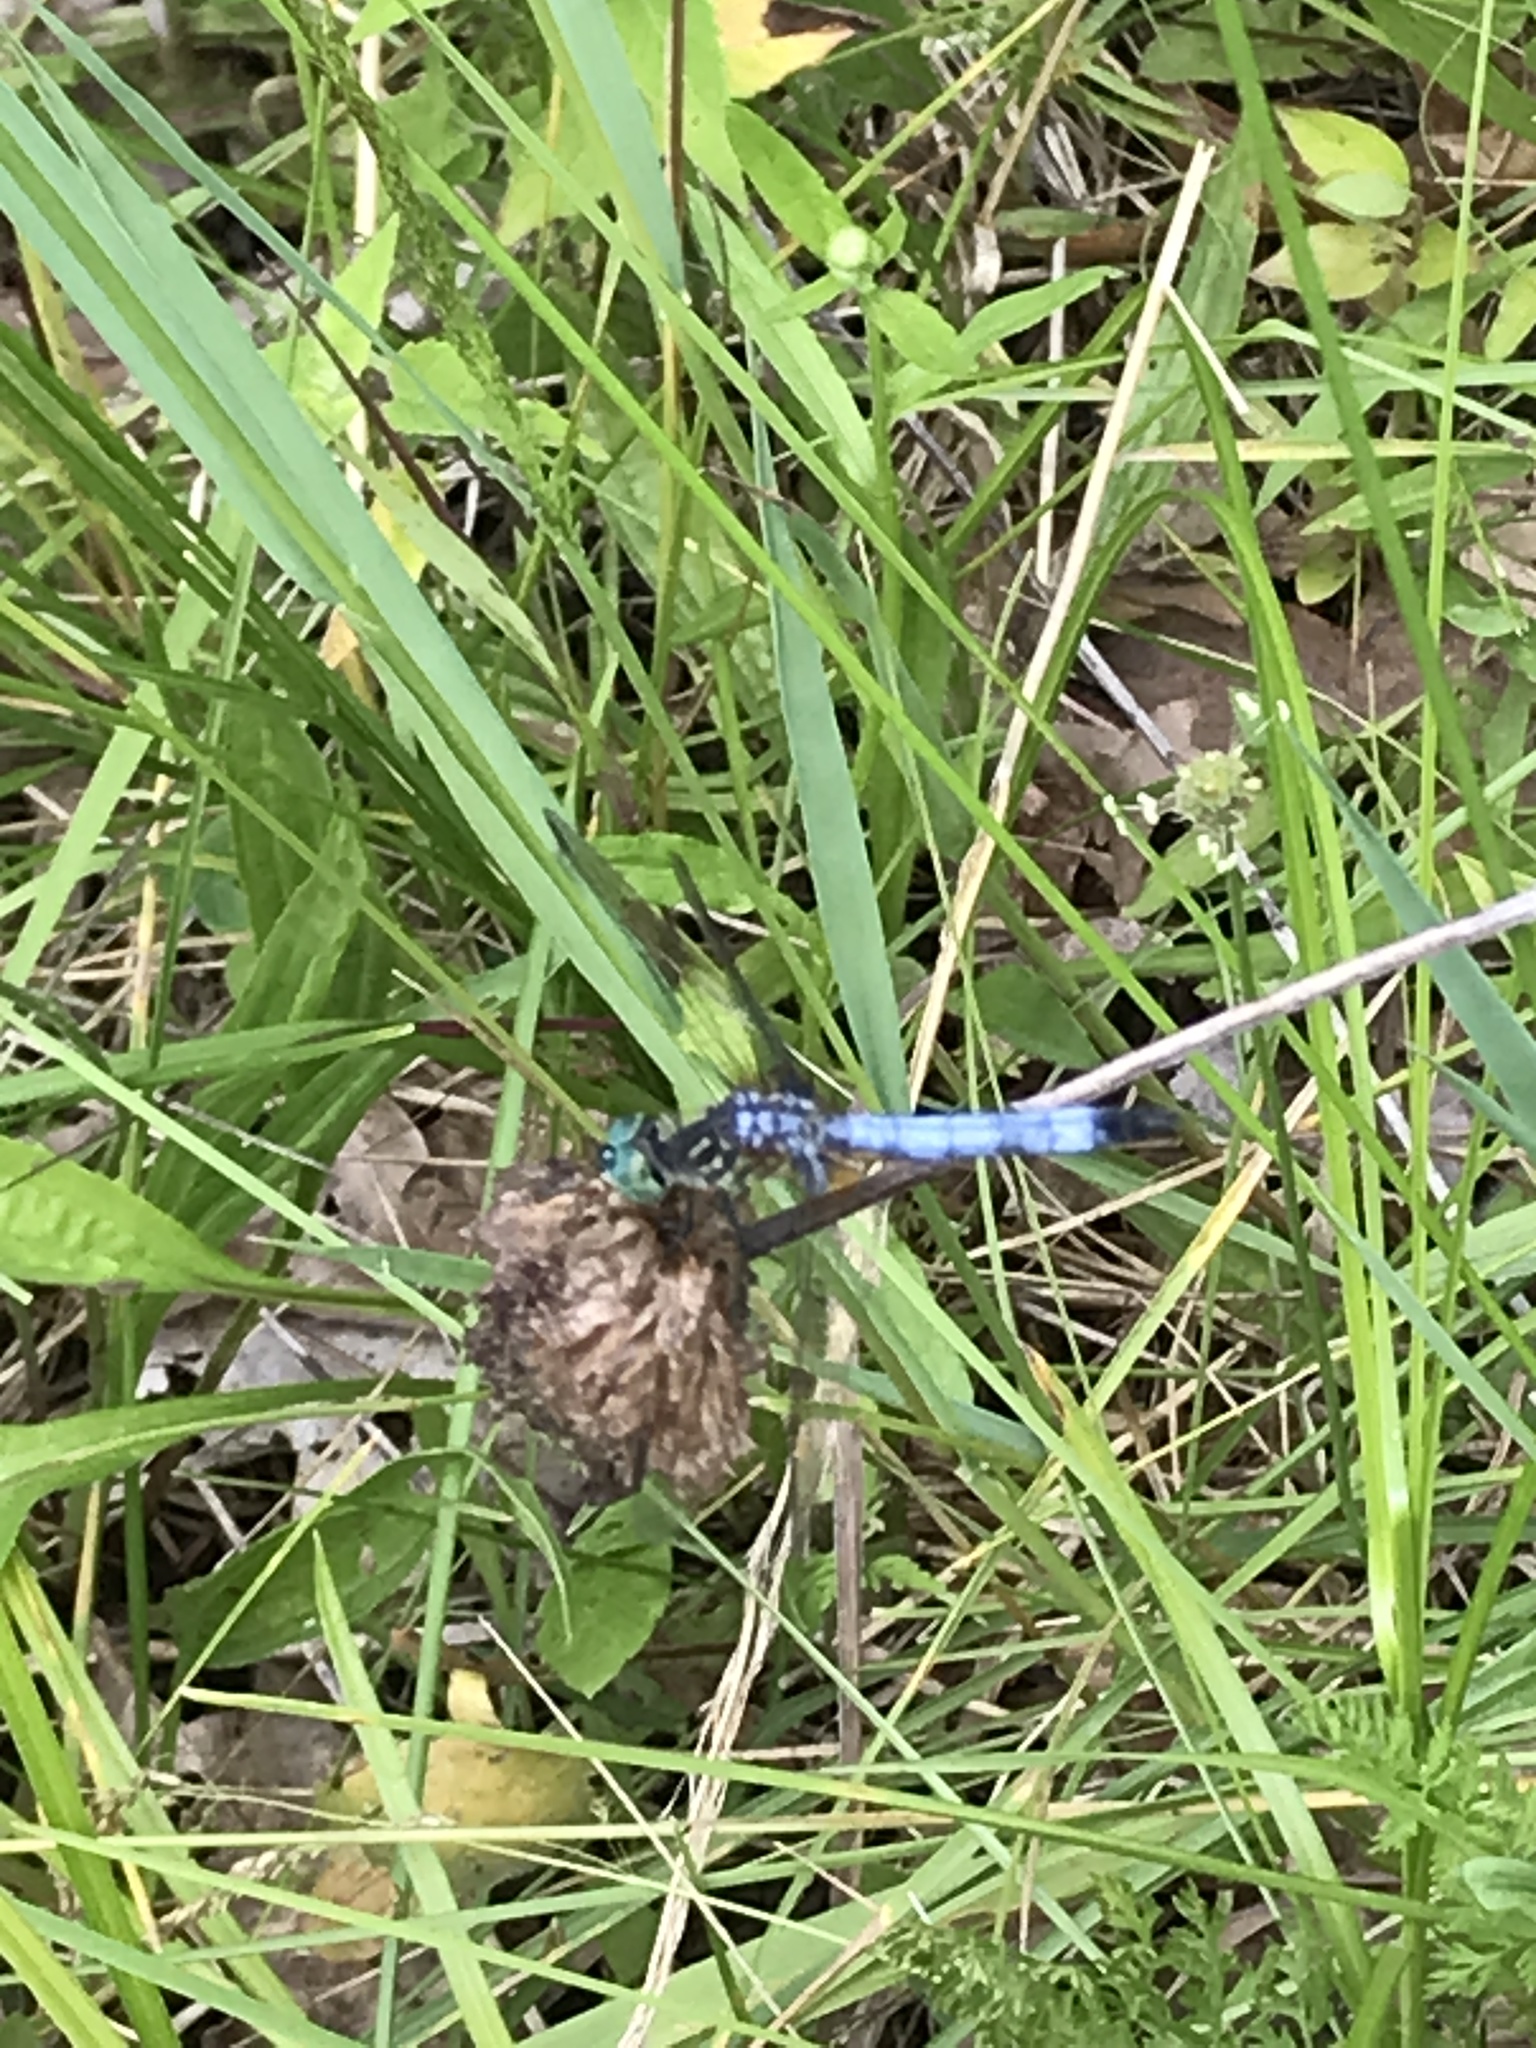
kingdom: Animalia
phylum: Arthropoda
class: Insecta
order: Odonata
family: Libellulidae
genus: Pachydiplax
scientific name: Pachydiplax longipennis
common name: Blue dasher
